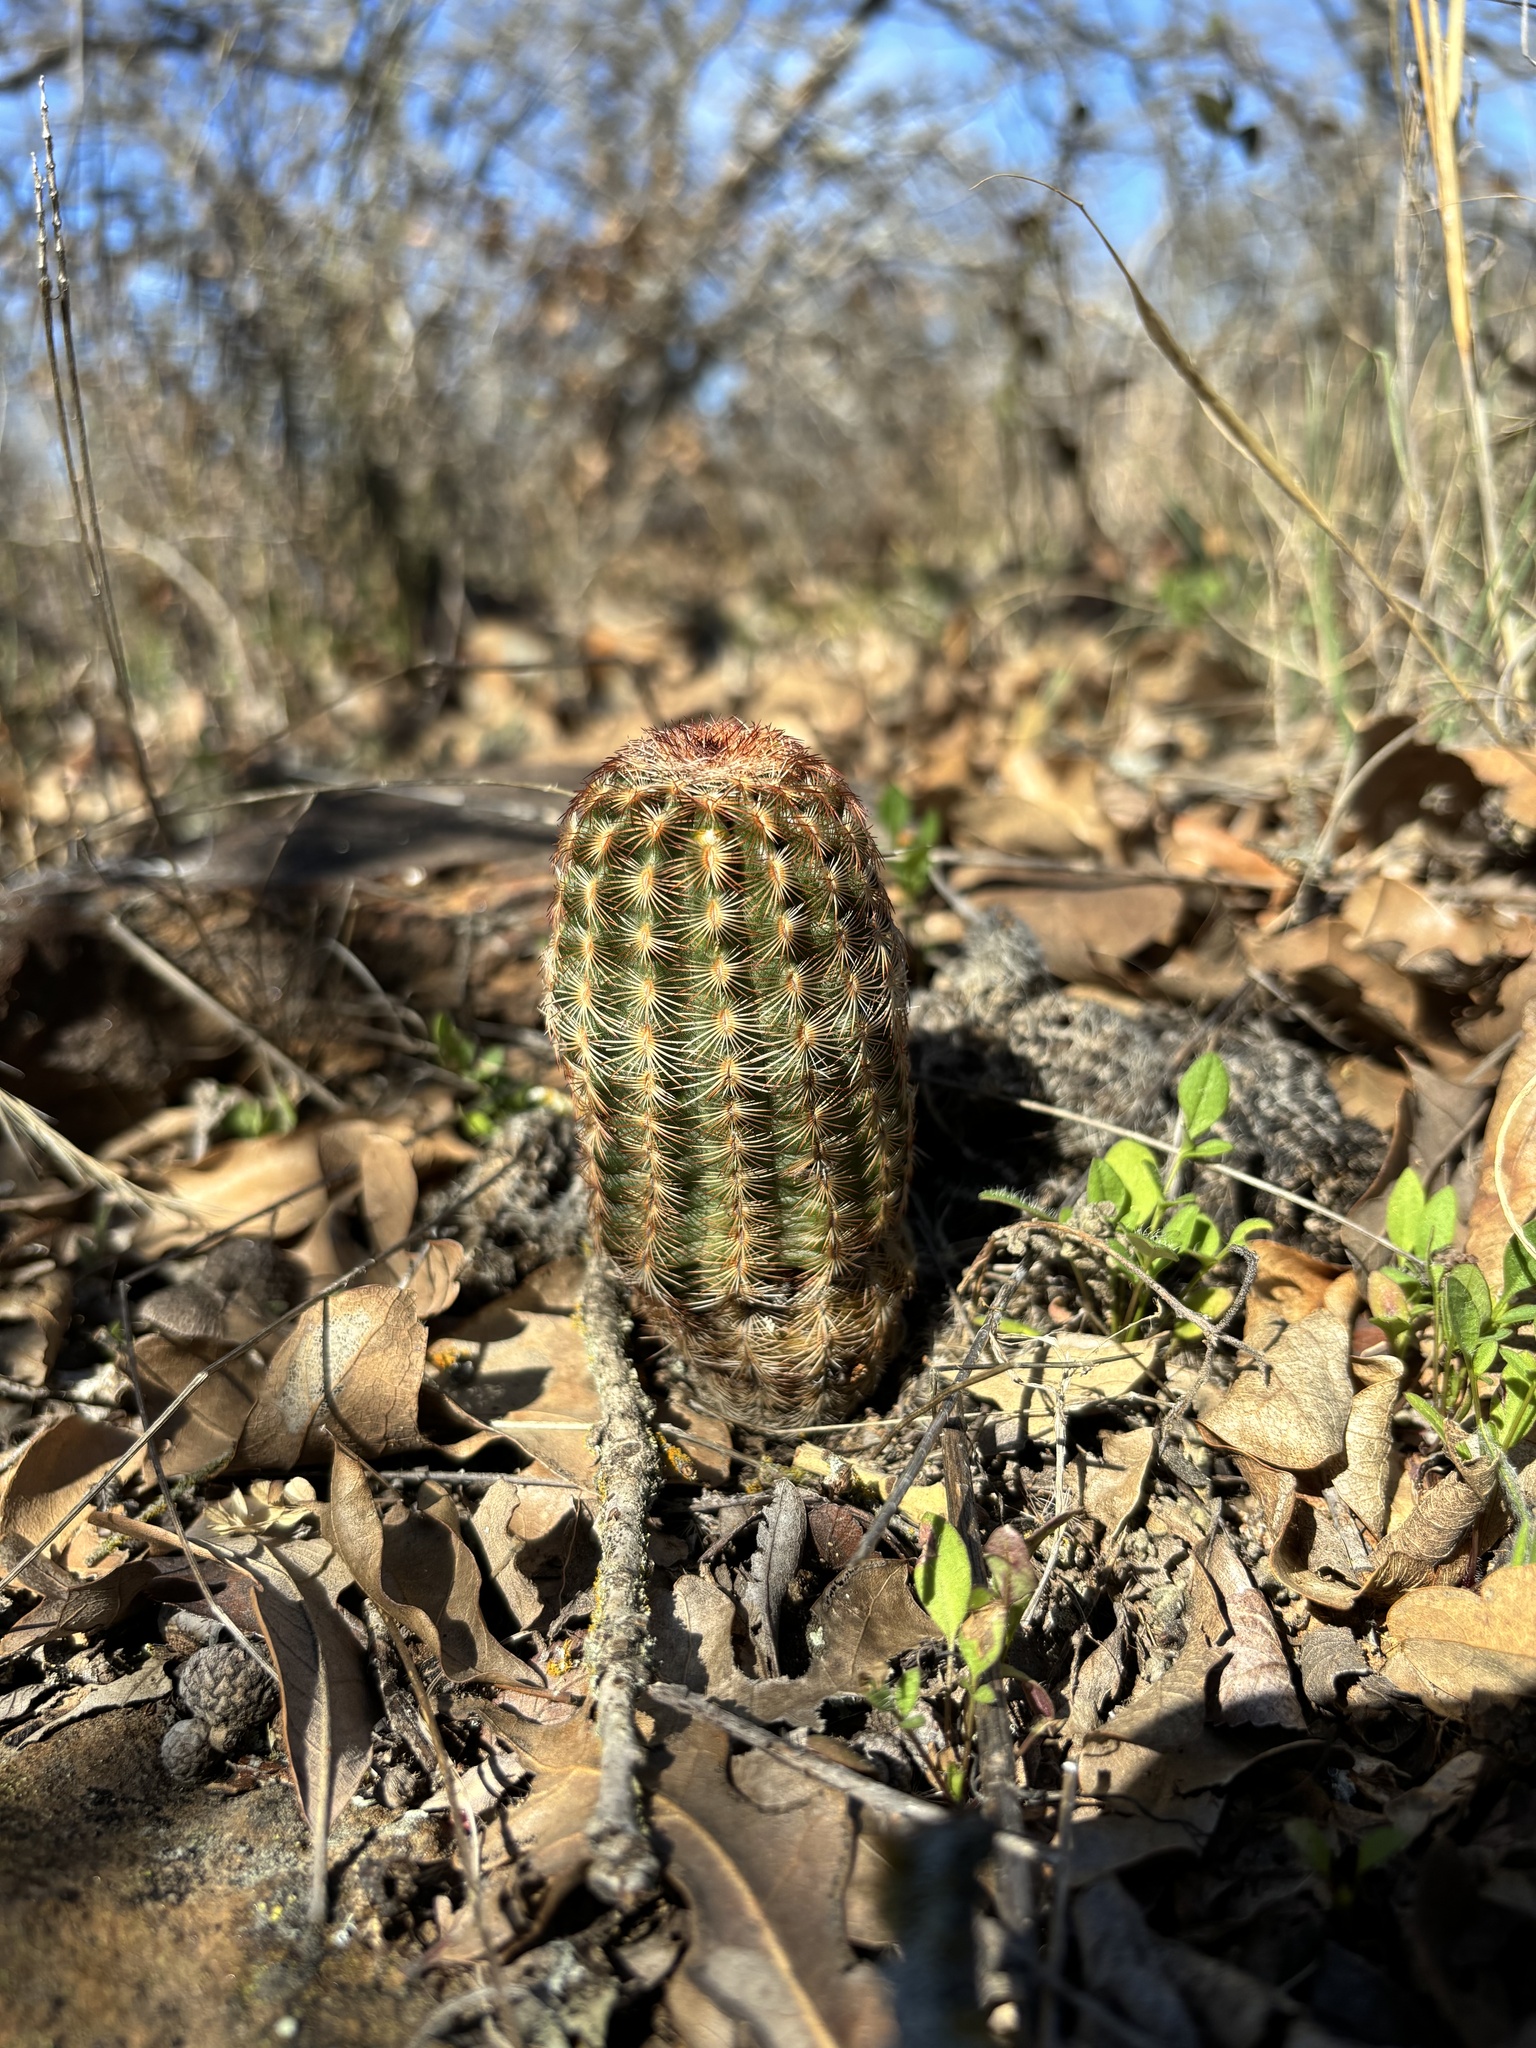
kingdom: Plantae
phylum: Tracheophyta
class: Magnoliopsida
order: Caryophyllales
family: Cactaceae
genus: Echinocereus
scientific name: Echinocereus reichenbachii
